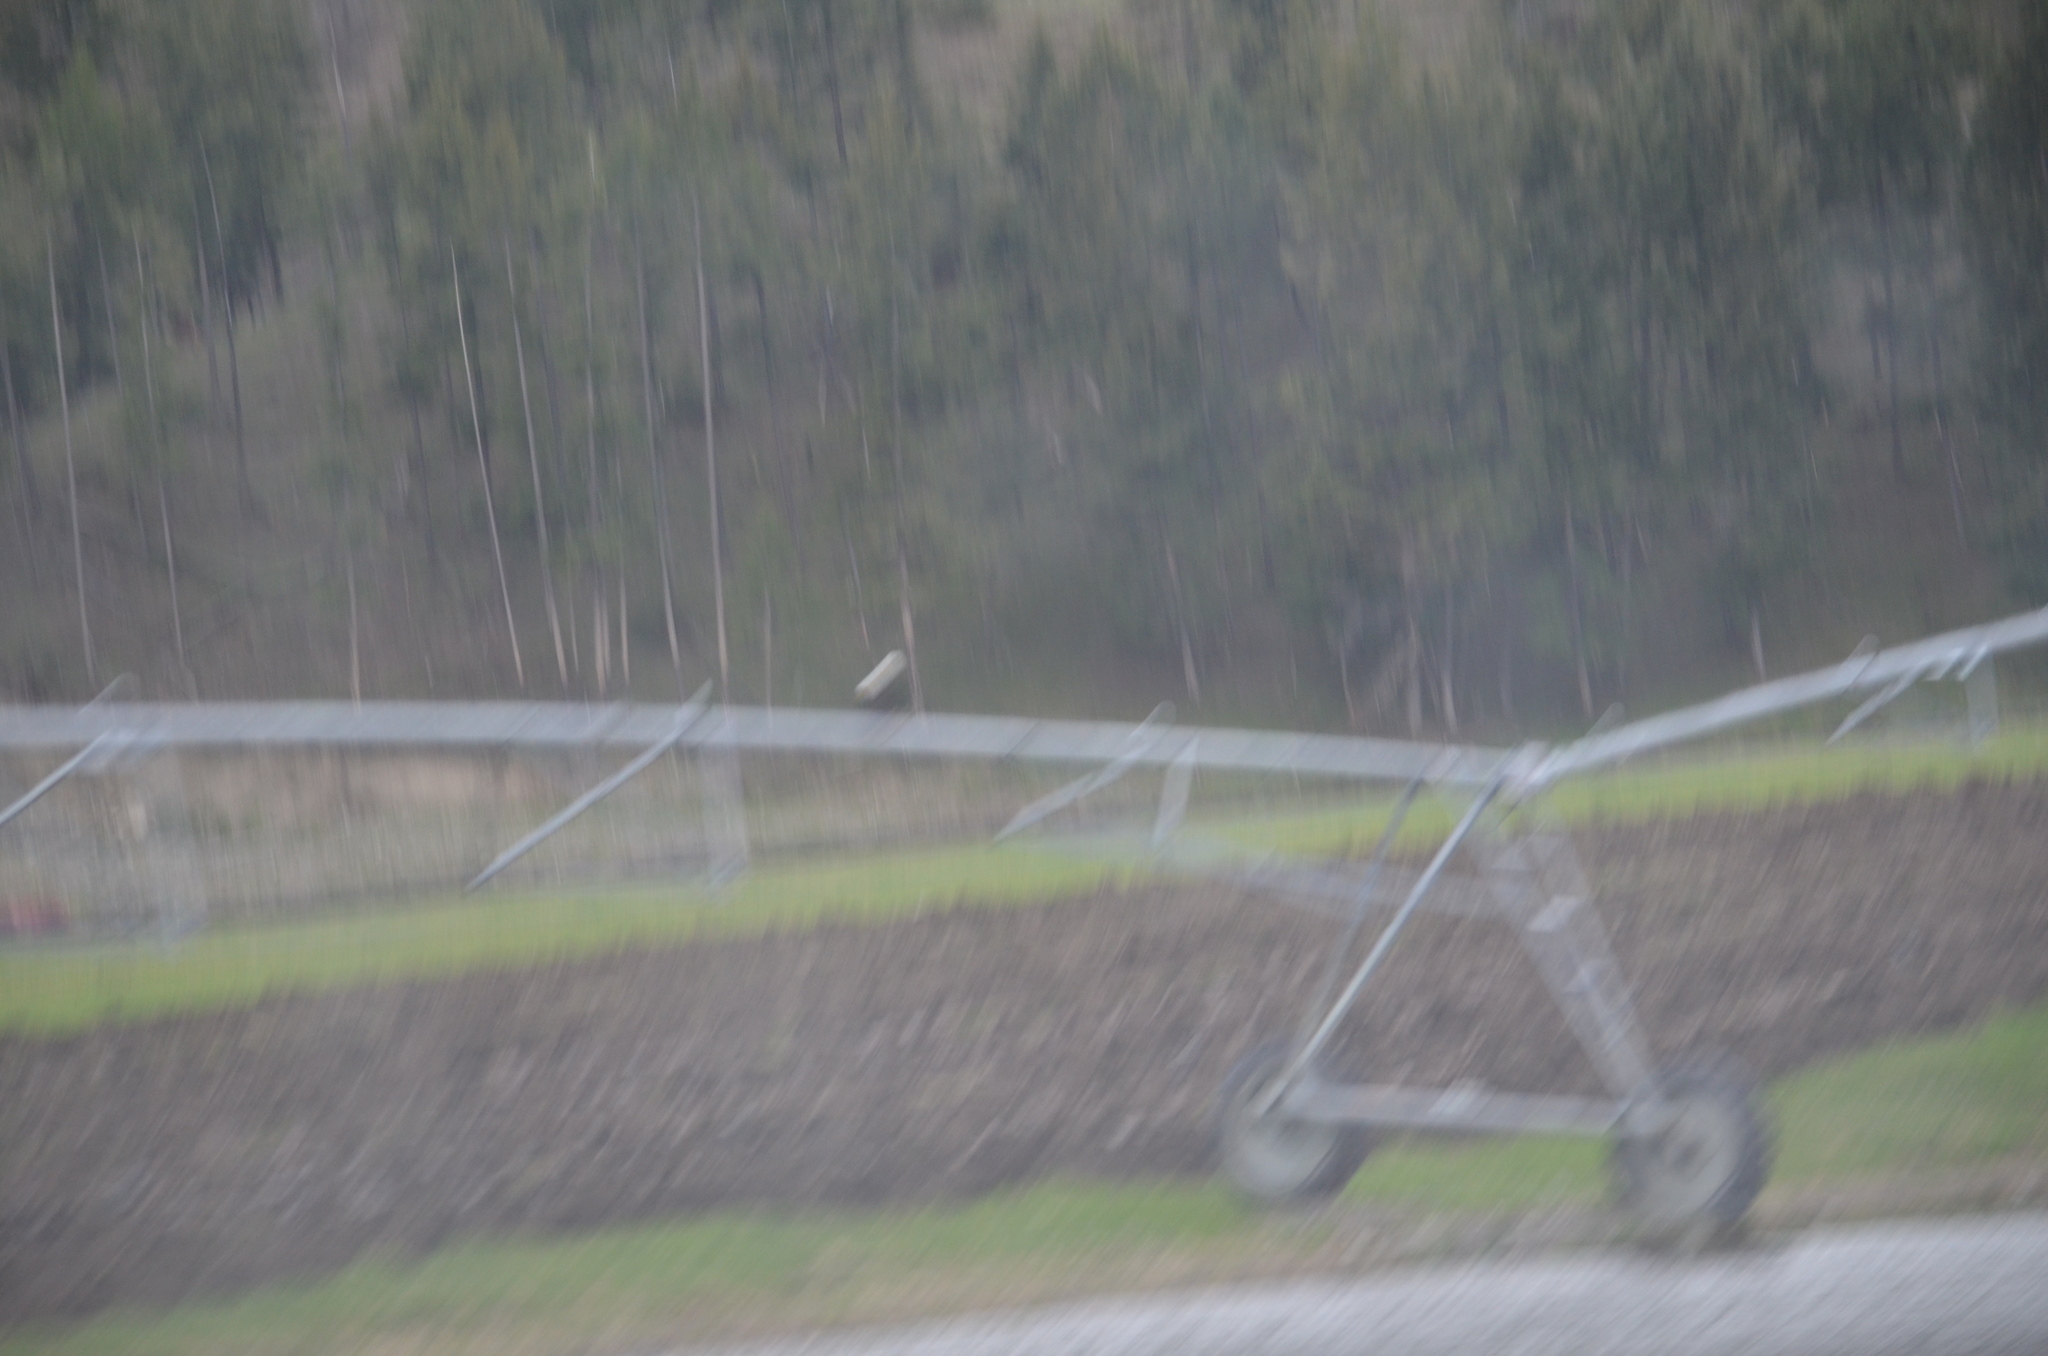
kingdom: Animalia
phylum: Chordata
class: Aves
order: Accipitriformes
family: Accipitridae
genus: Haliaeetus
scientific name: Haliaeetus leucocephalus
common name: Bald eagle
